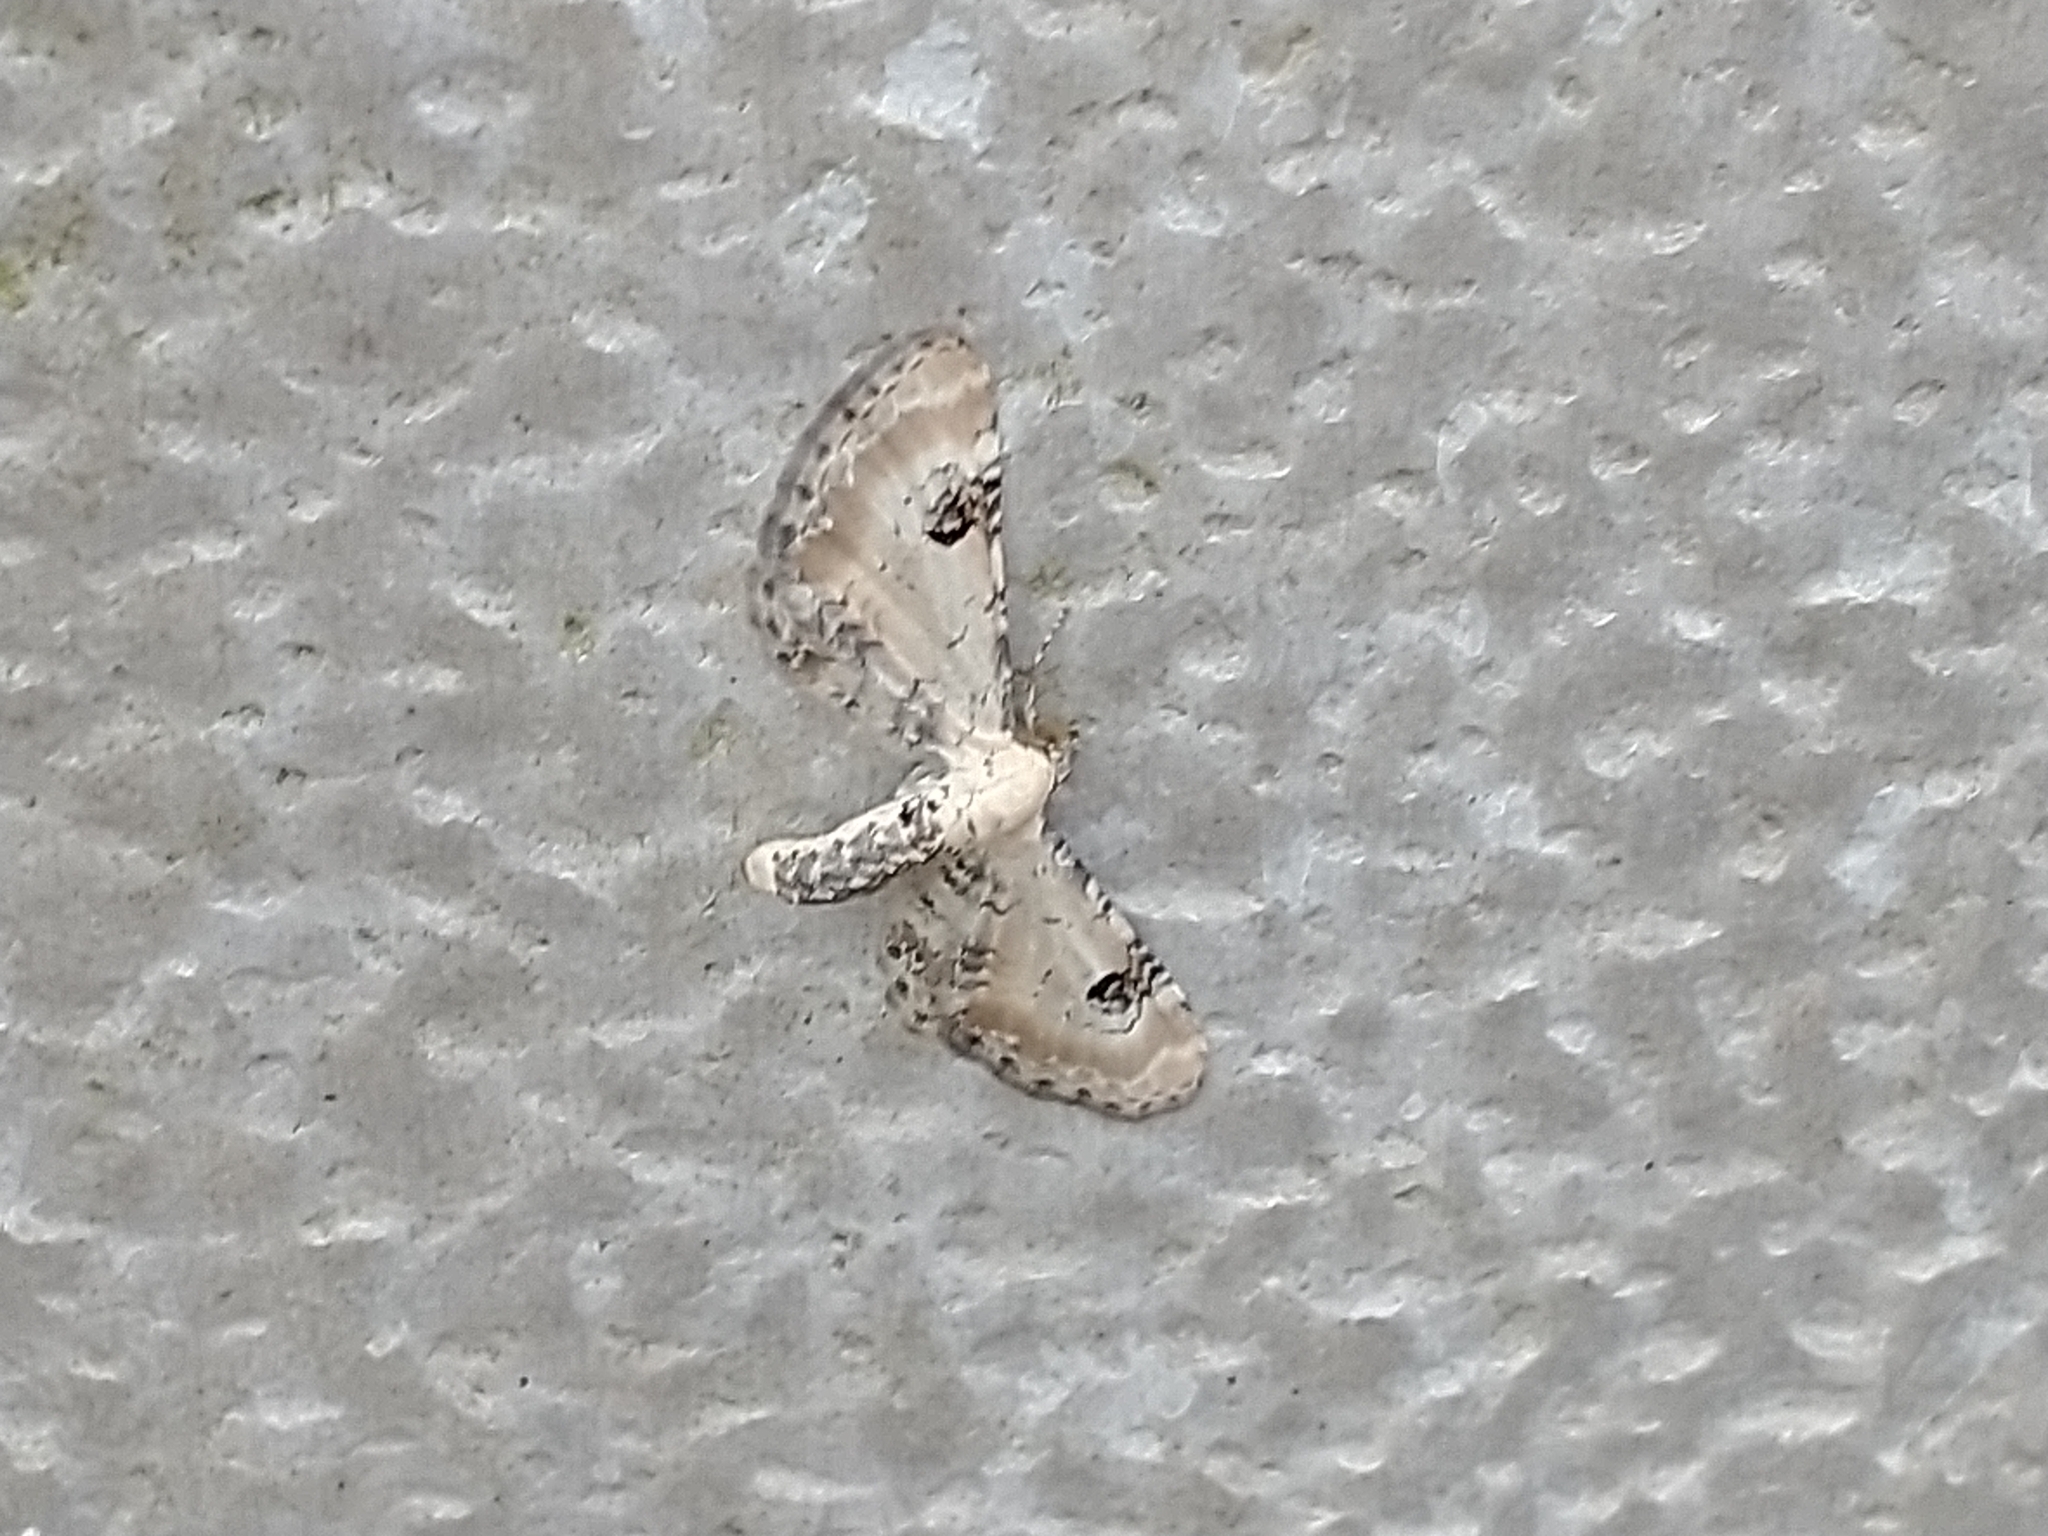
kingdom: Animalia
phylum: Arthropoda
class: Insecta
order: Lepidoptera
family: Geometridae
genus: Eupithecia
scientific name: Eupithecia centaureata
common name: Lime-speck pug
